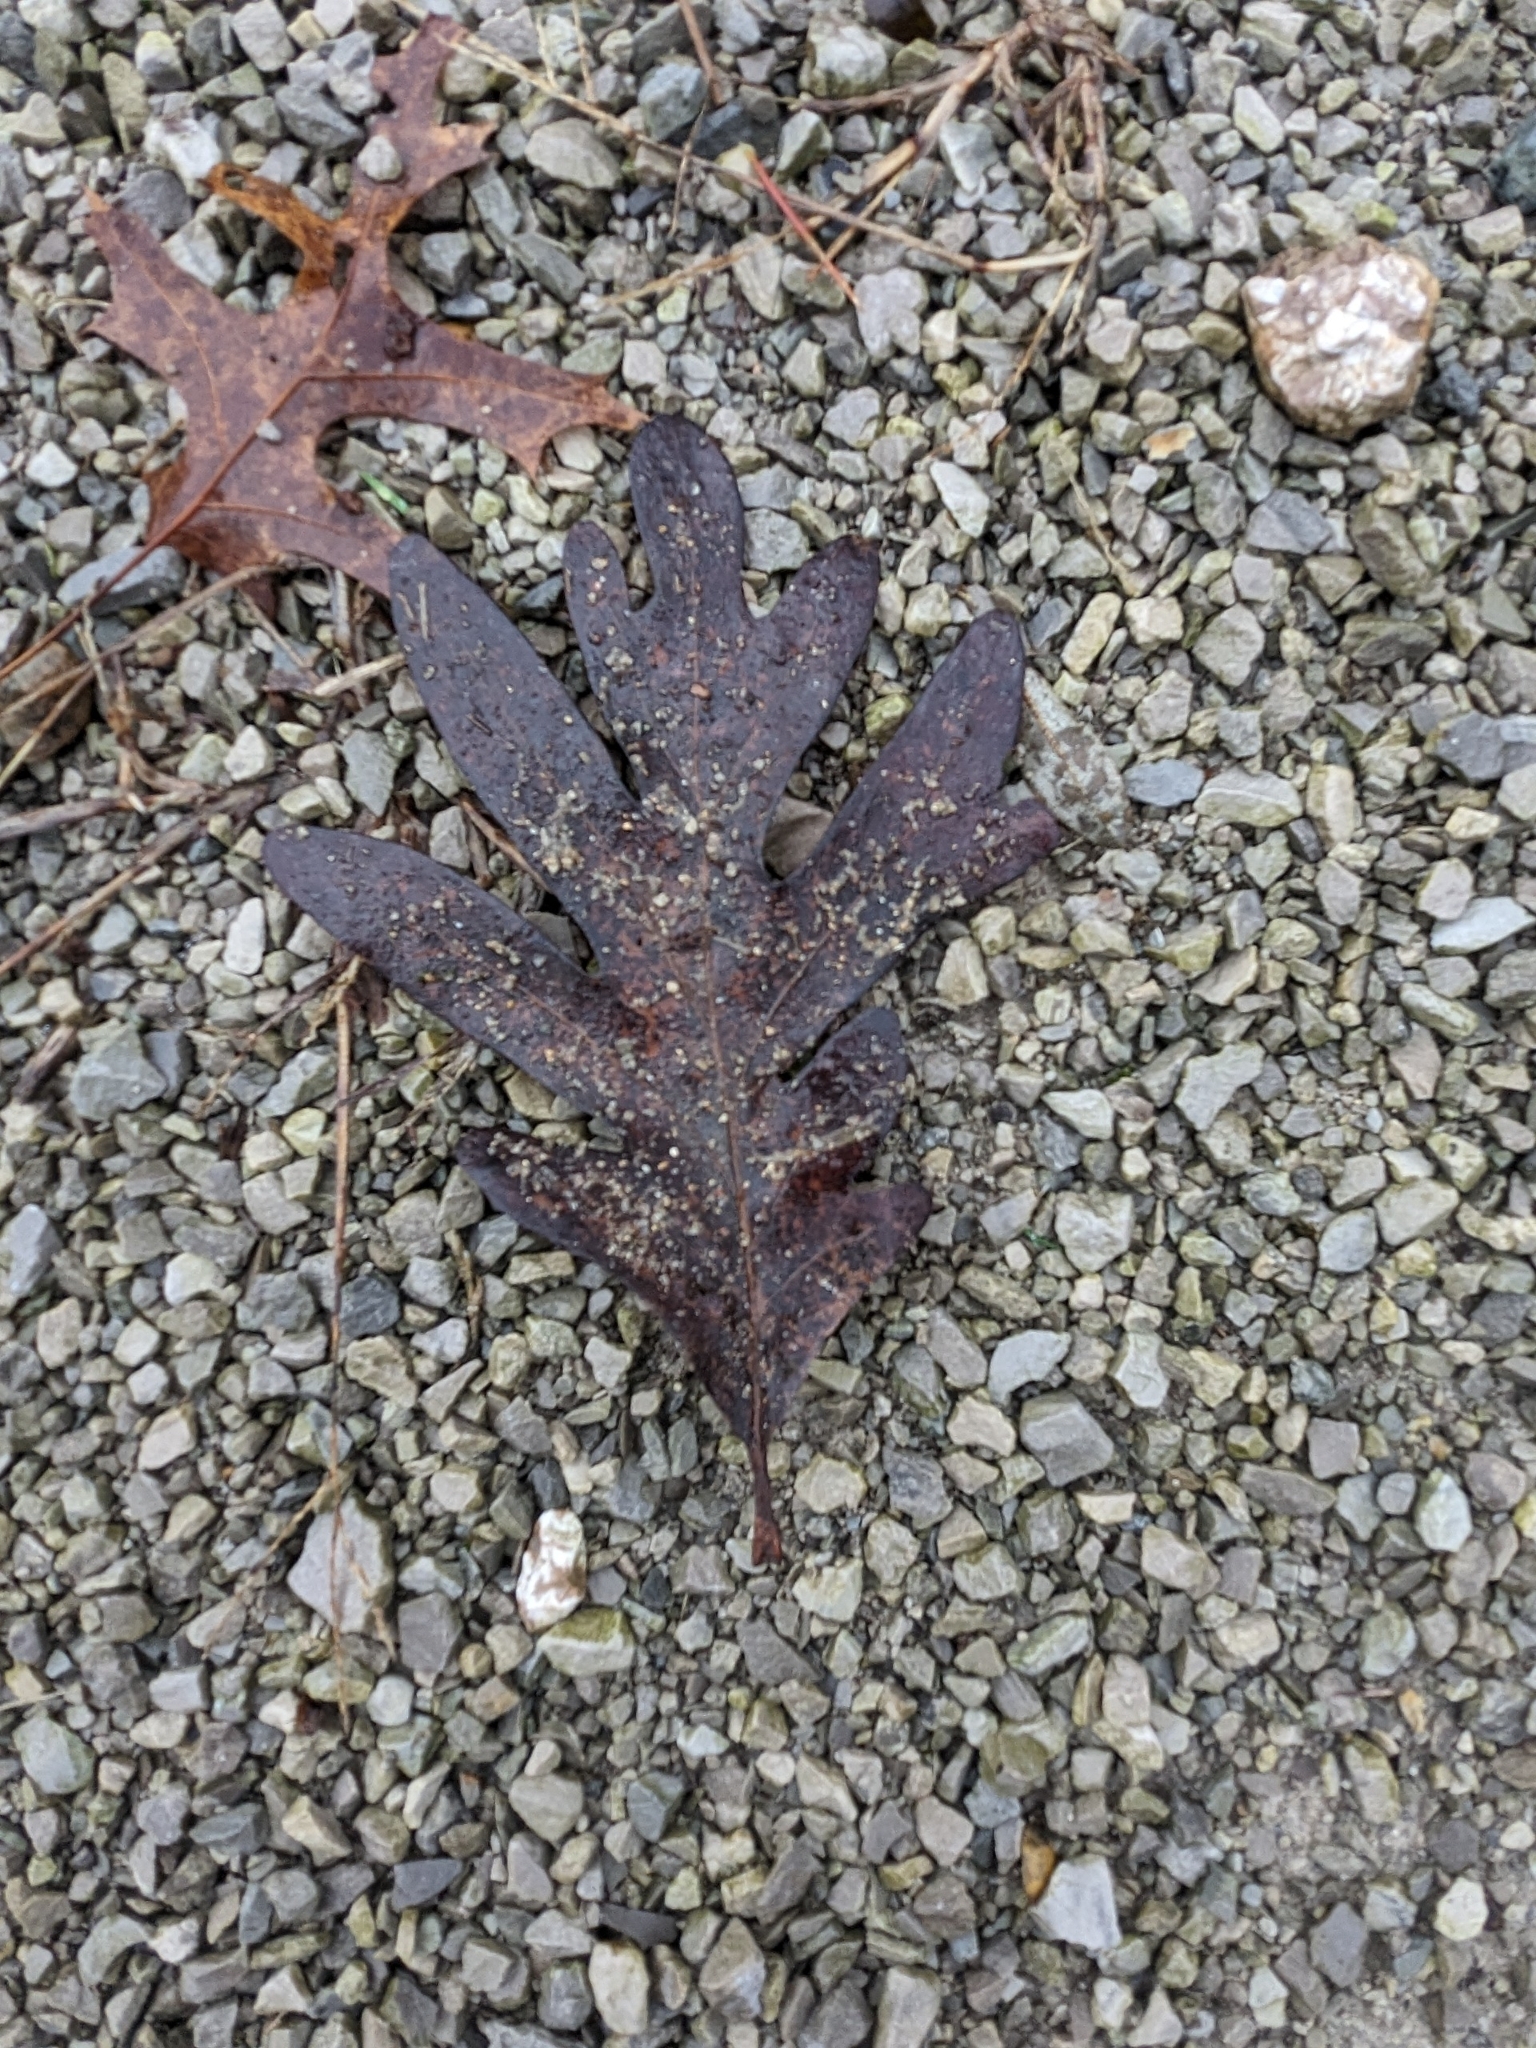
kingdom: Plantae
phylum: Tracheophyta
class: Magnoliopsida
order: Fagales
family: Fagaceae
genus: Quercus
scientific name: Quercus alba
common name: White oak
